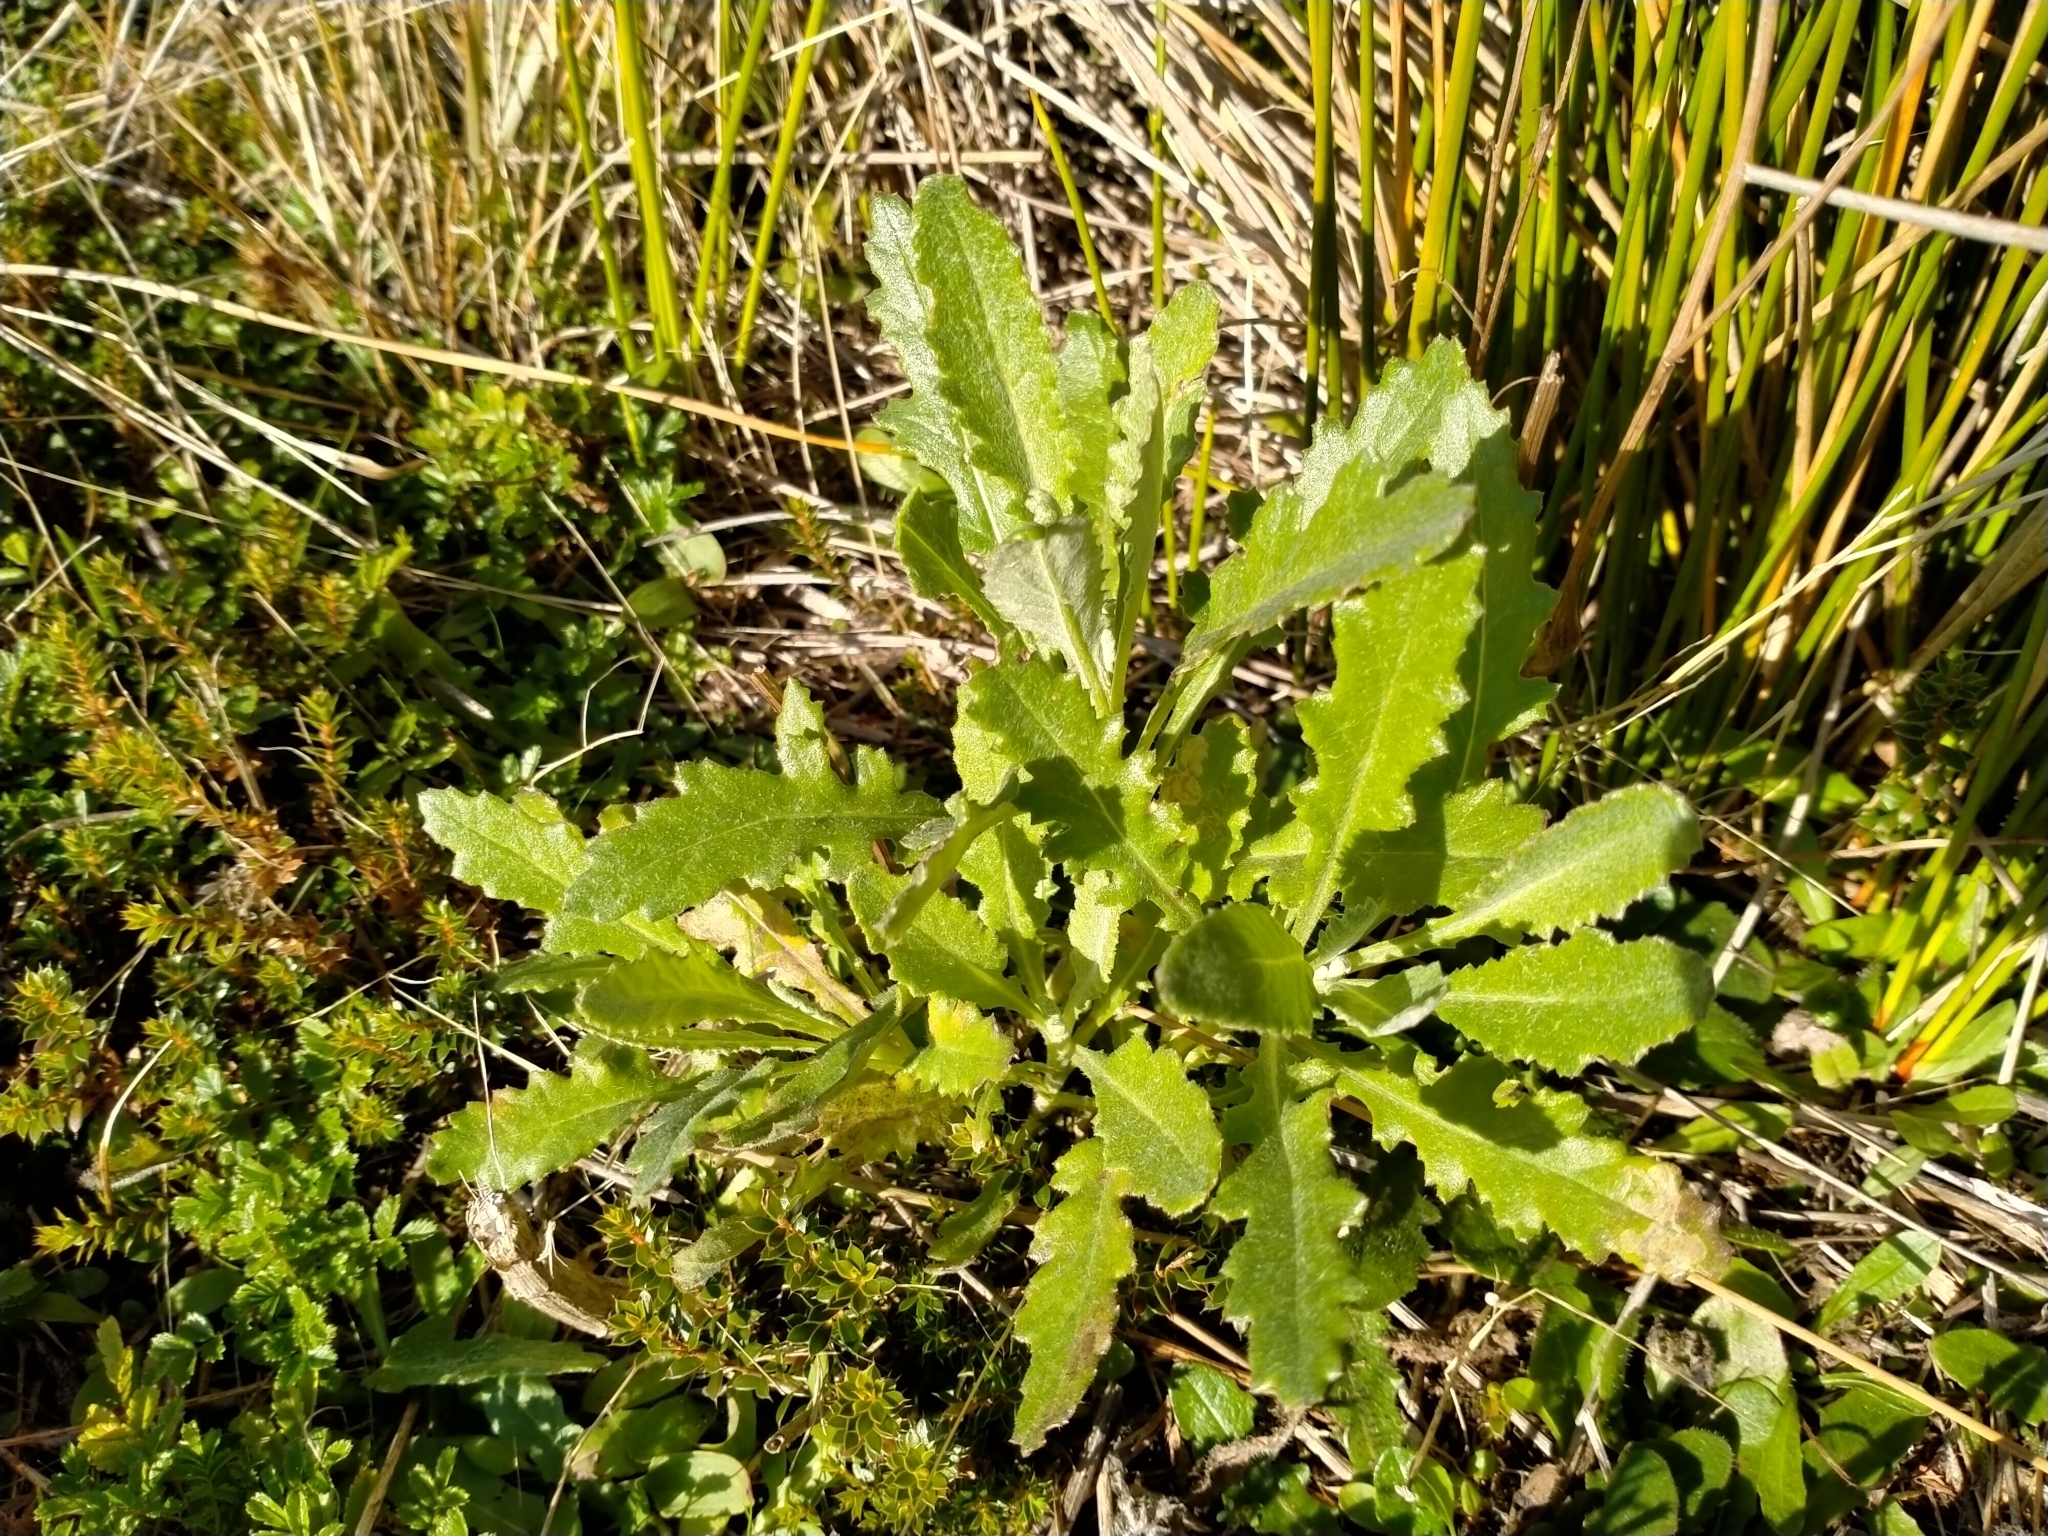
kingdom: Plantae
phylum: Tracheophyta
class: Magnoliopsida
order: Asterales
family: Asteraceae
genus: Senecio
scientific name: Senecio glomeratus
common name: Cutleaf burnweed
